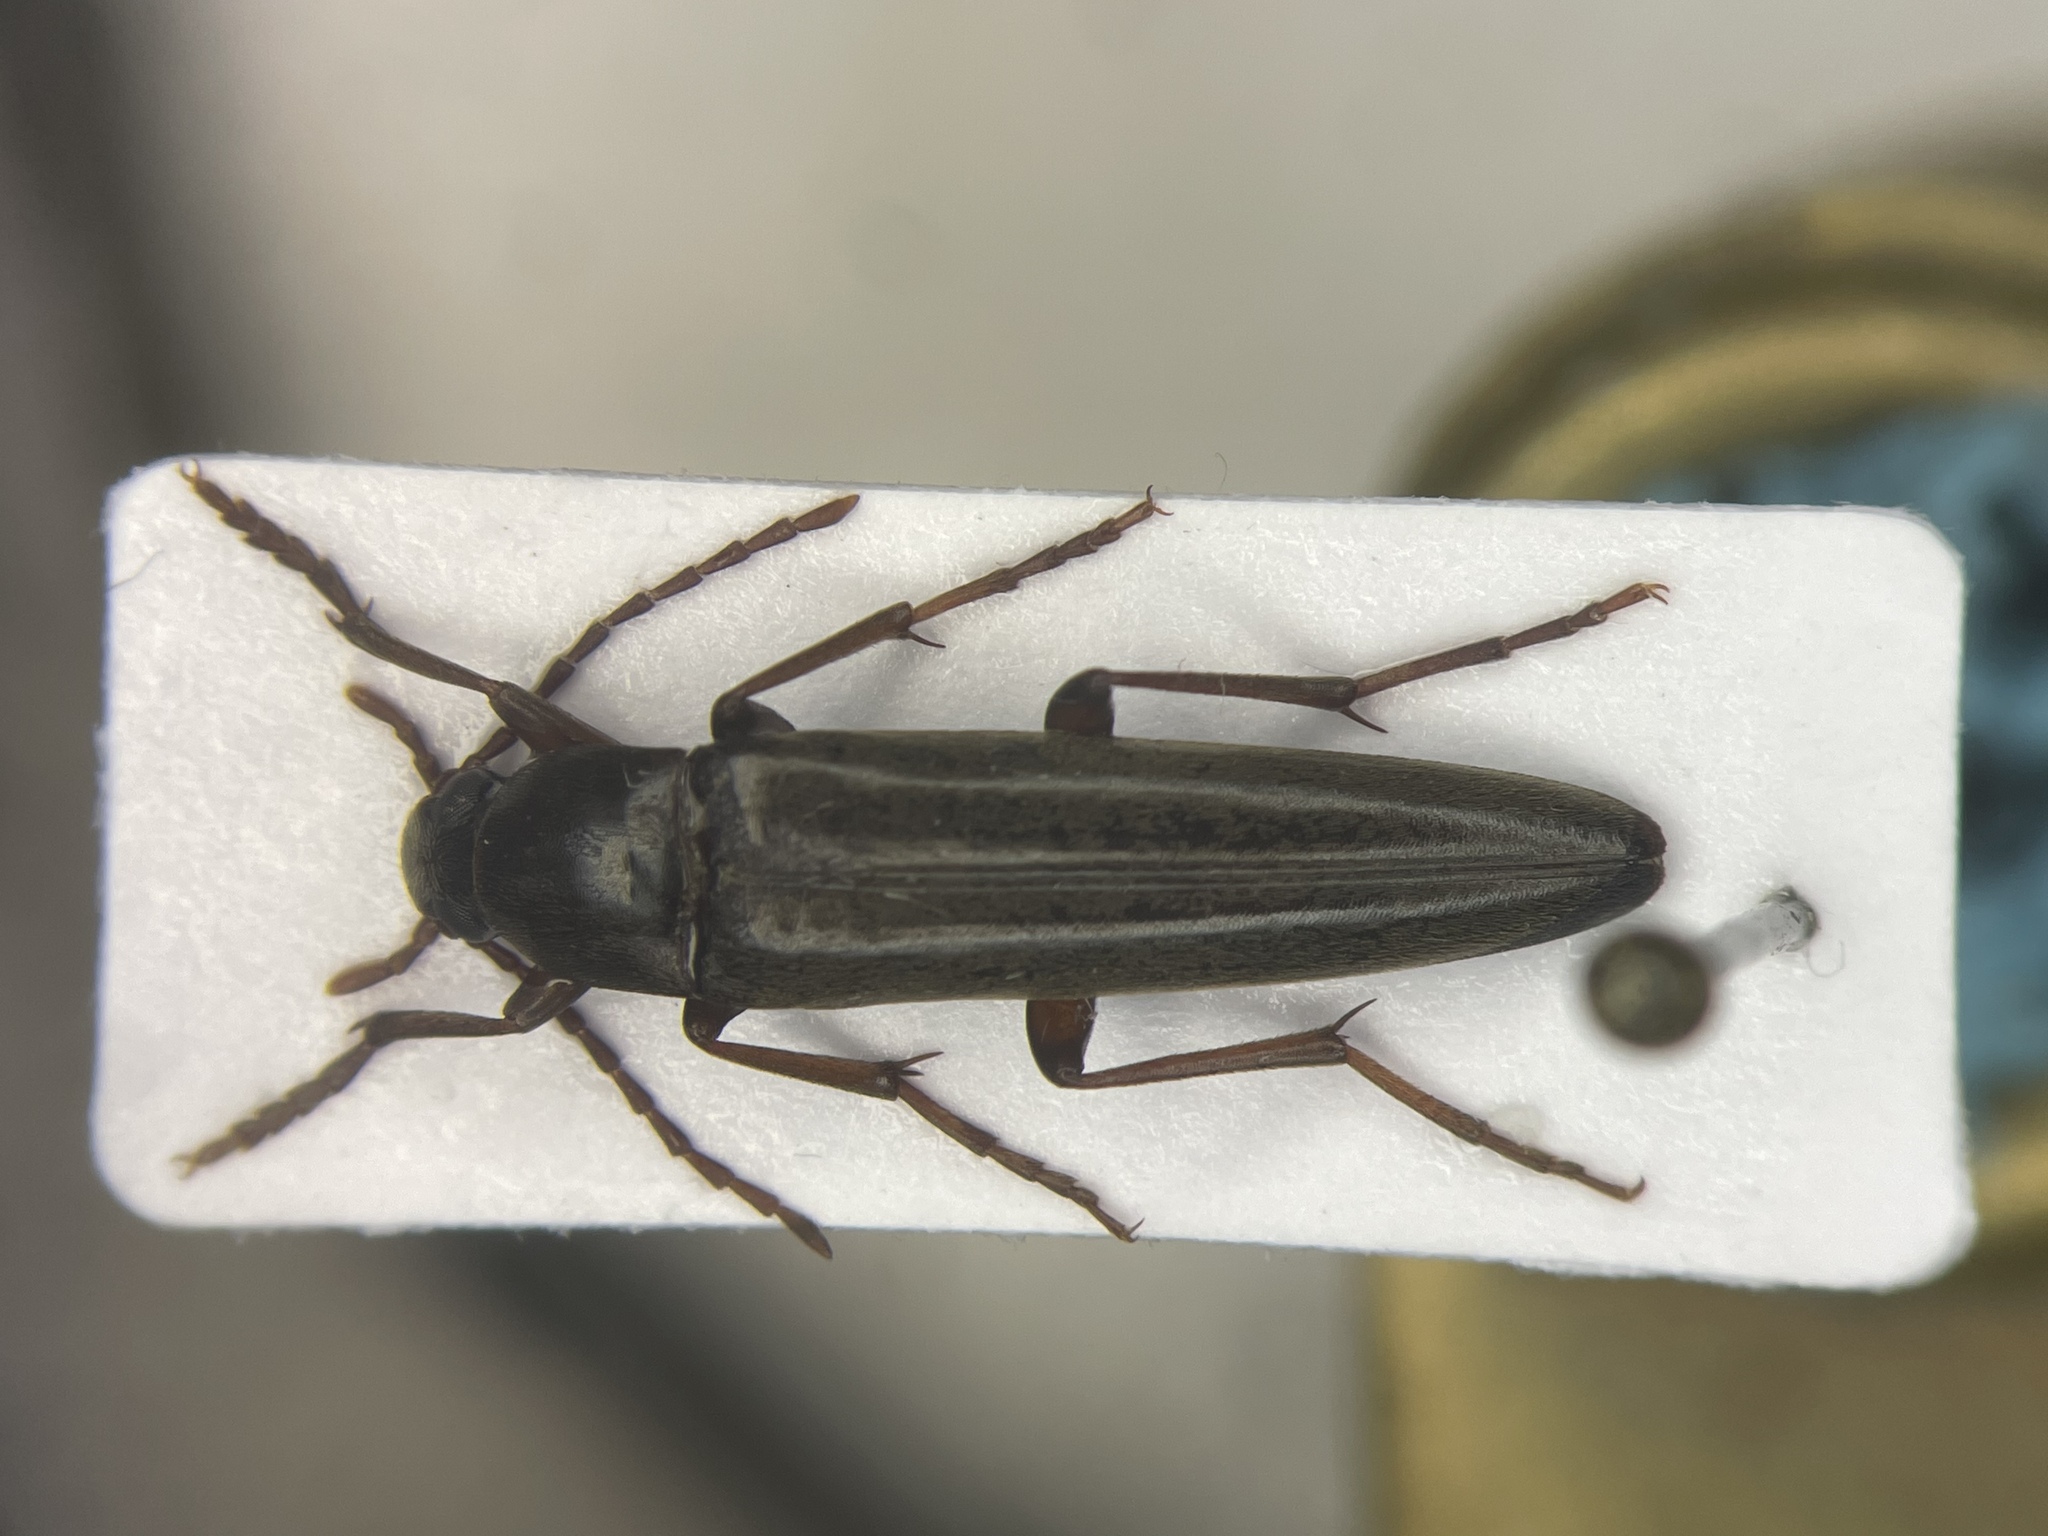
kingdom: Animalia
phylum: Arthropoda
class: Insecta
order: Coleoptera
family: Melandryidae
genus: Enchodes
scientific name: Enchodes sericea
